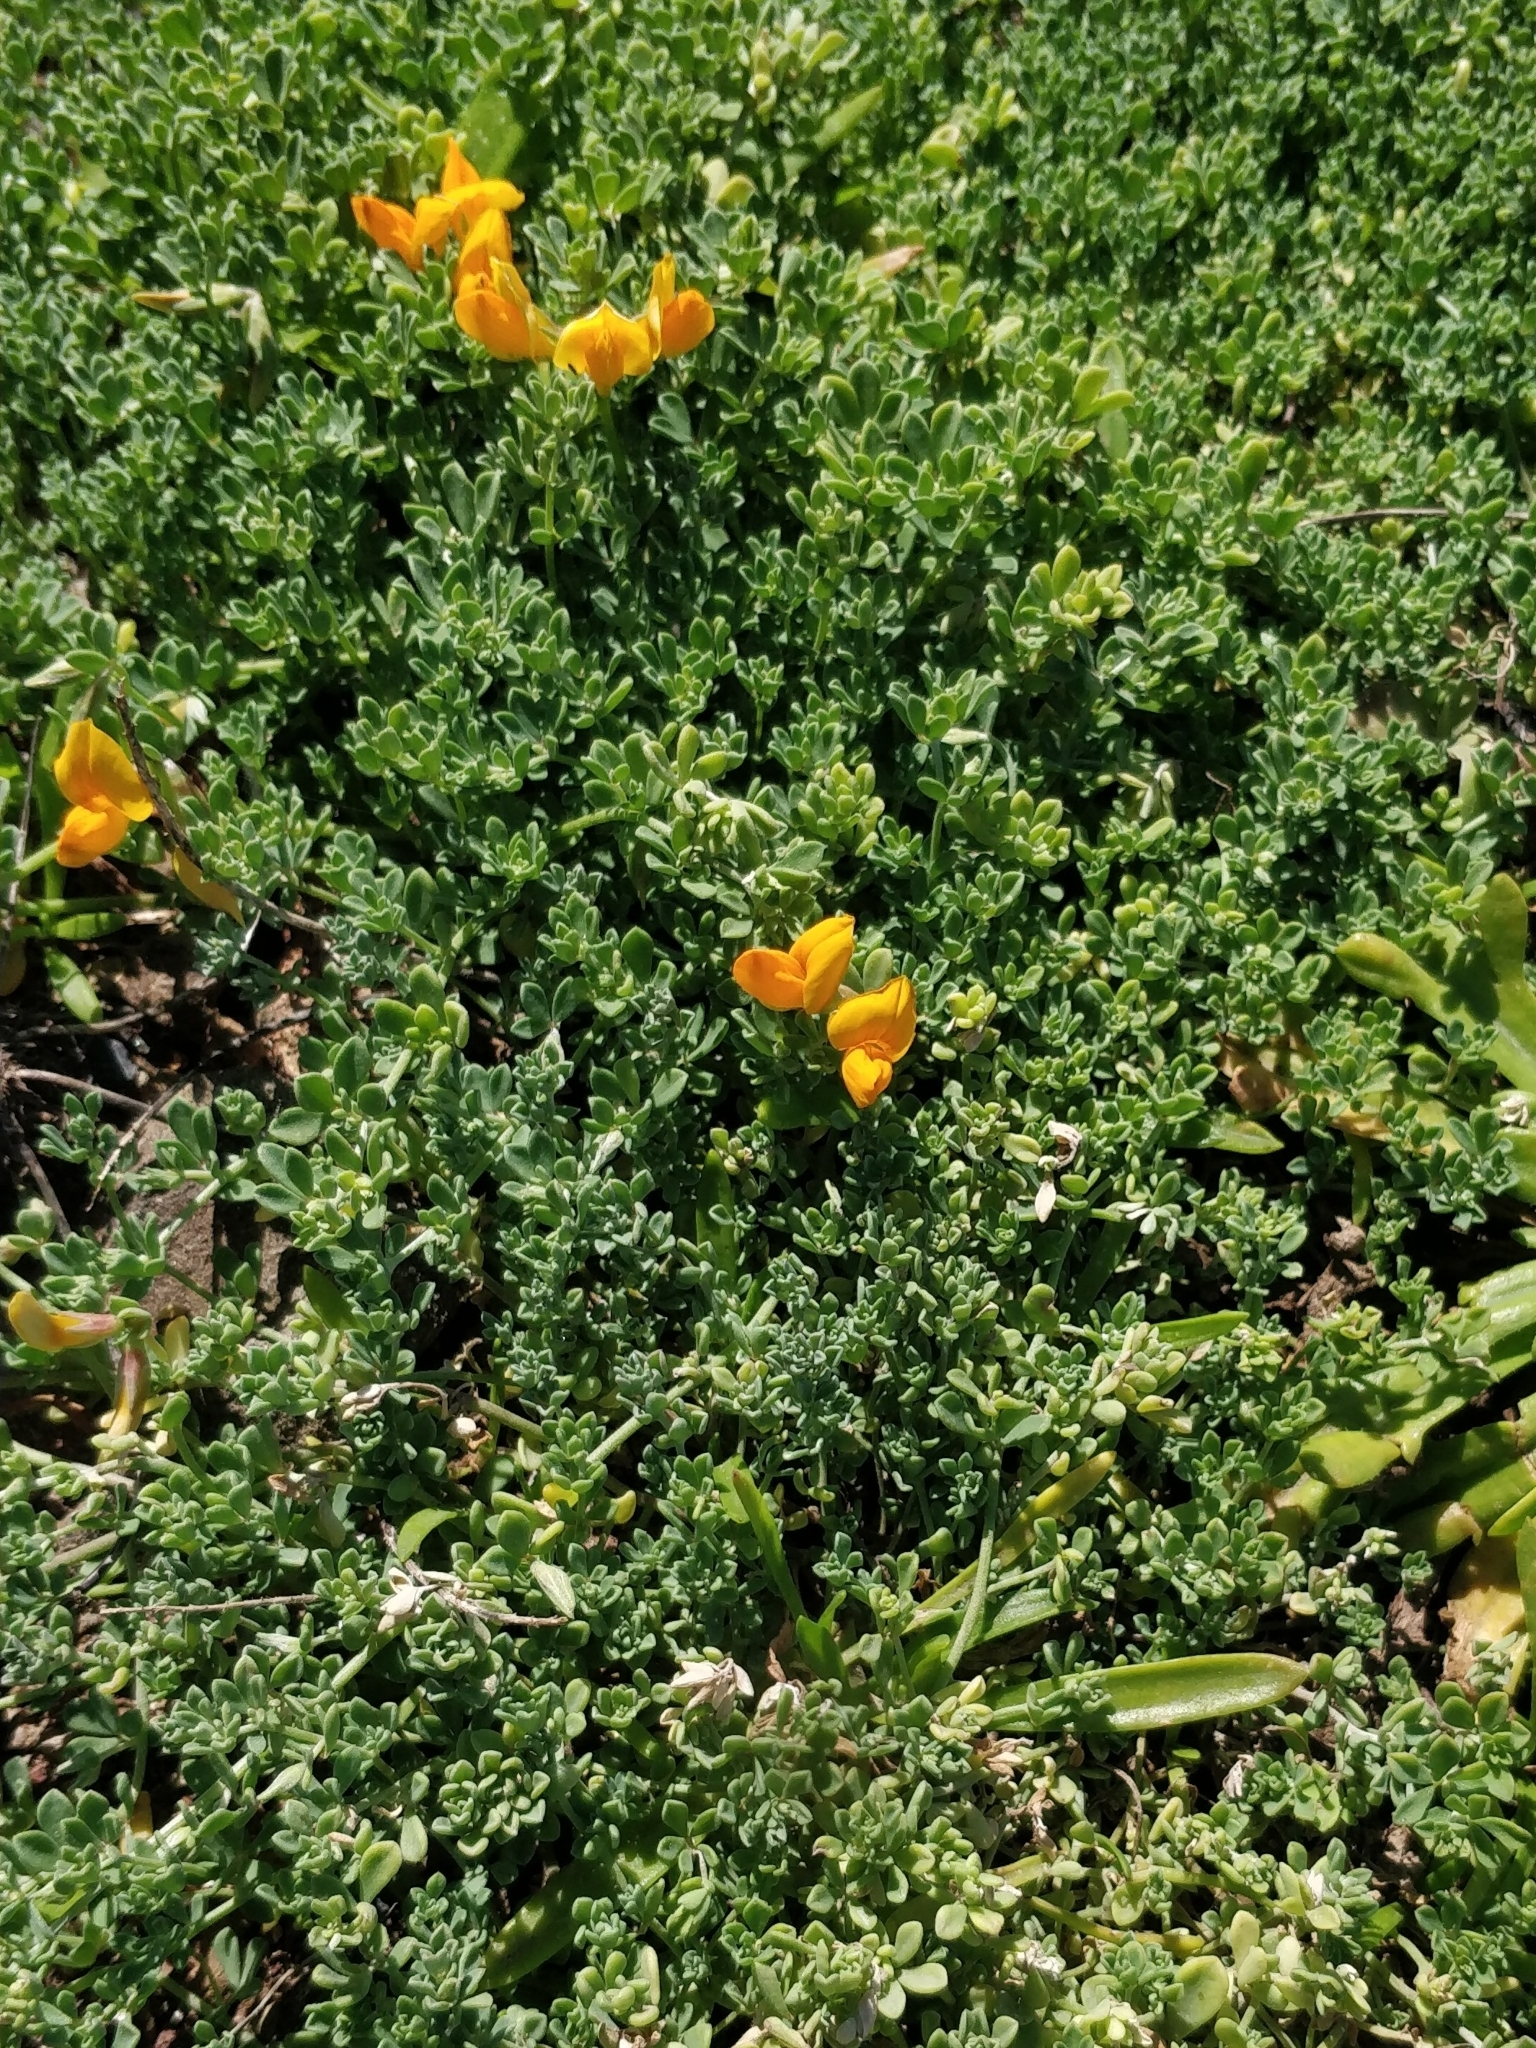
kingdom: Plantae
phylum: Tracheophyta
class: Magnoliopsida
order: Fabales
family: Fabaceae
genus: Lotus
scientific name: Lotus glaucus
